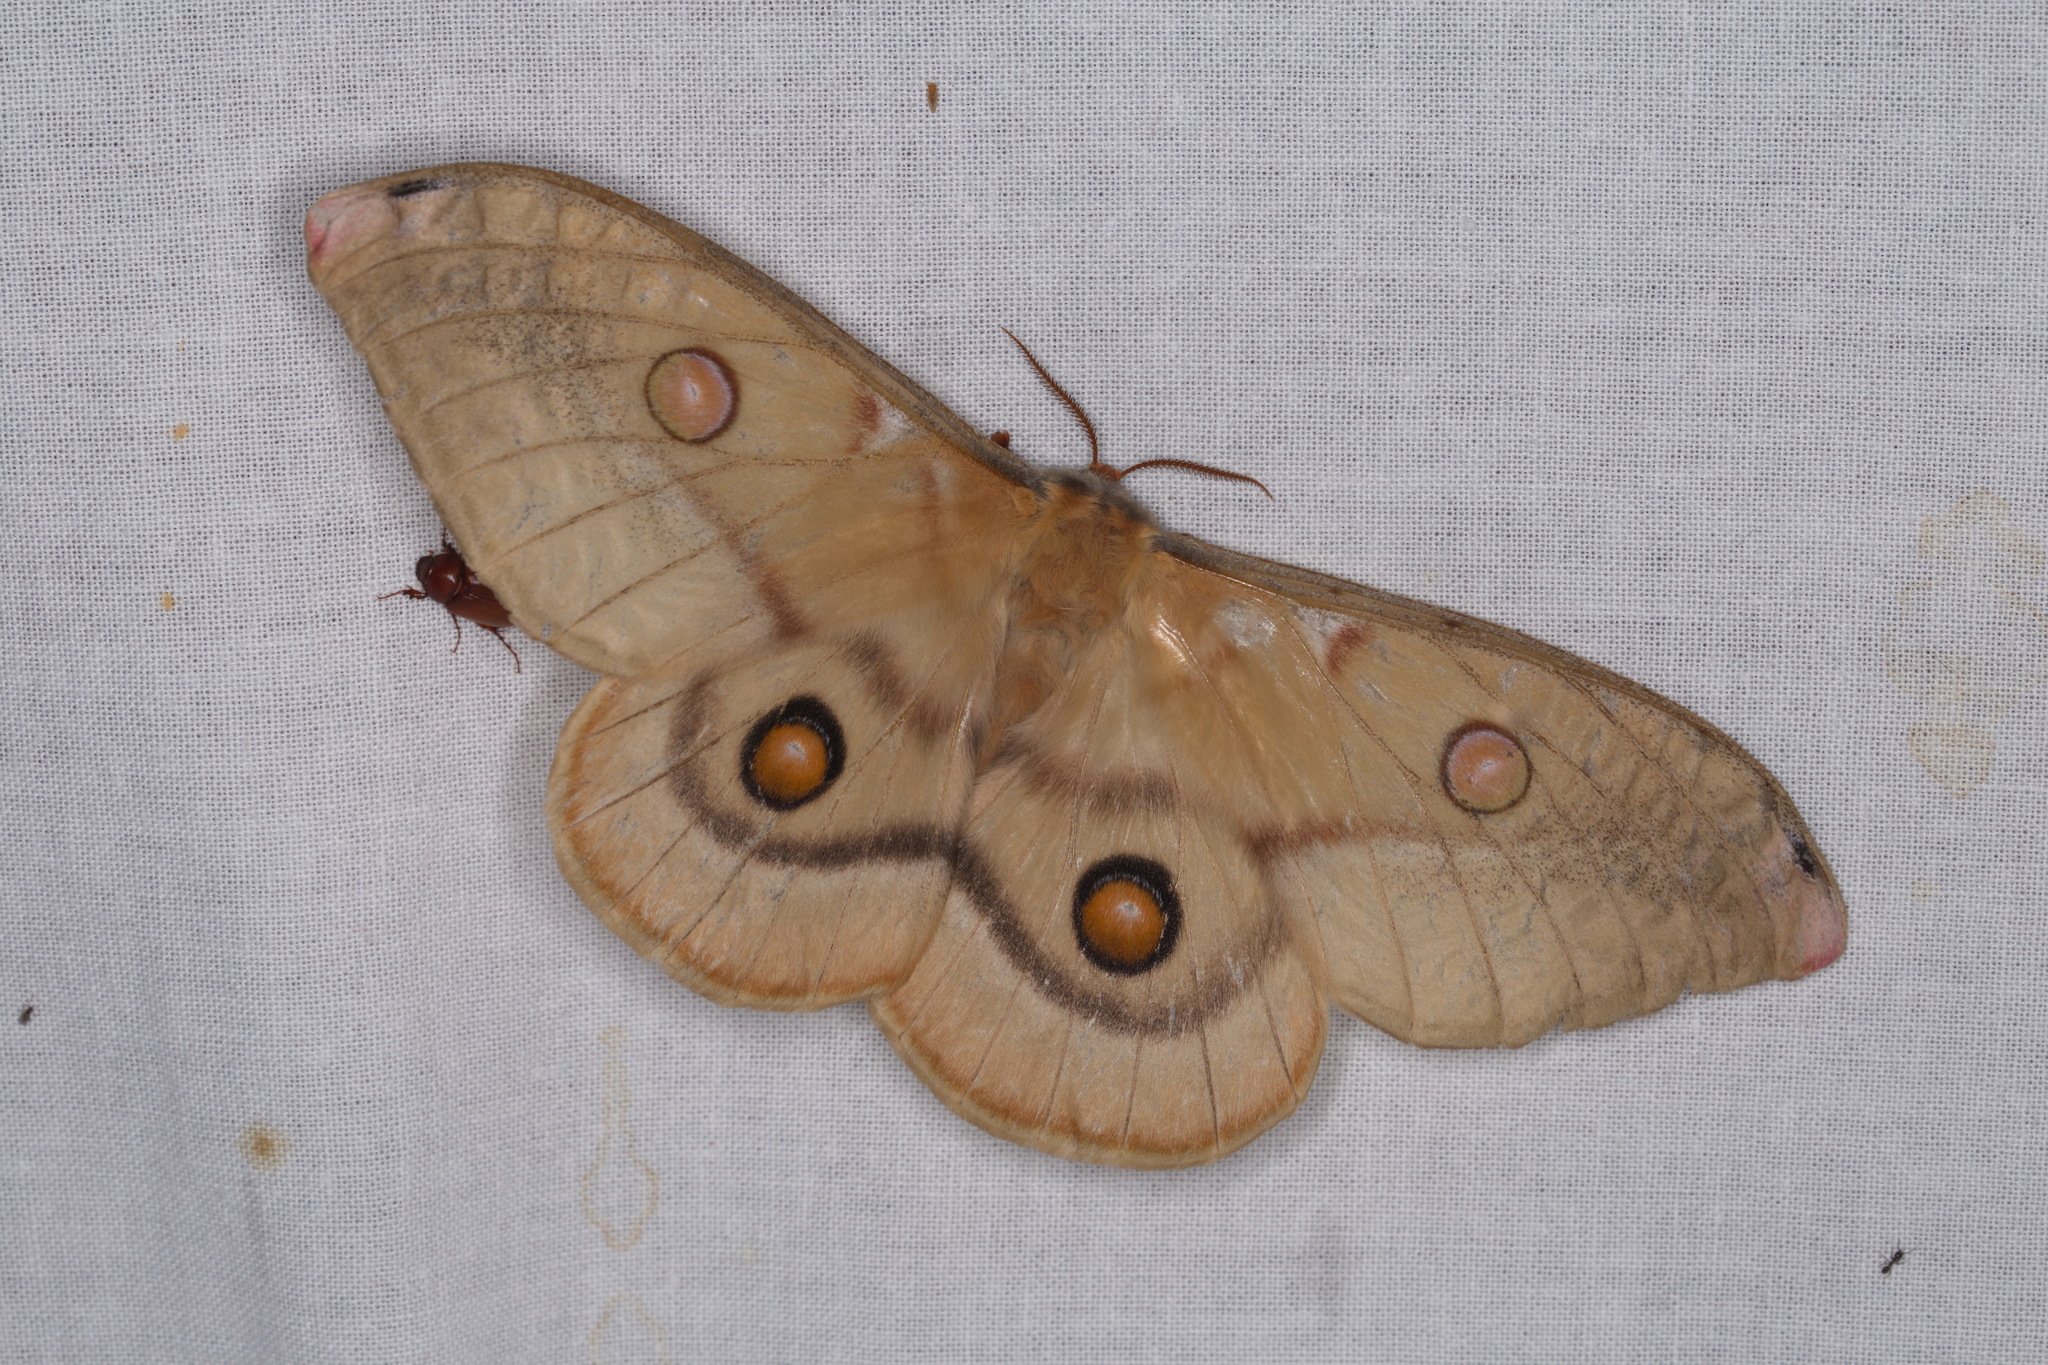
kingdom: Animalia
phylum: Arthropoda
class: Insecta
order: Lepidoptera
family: Saturniidae
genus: Opodiphthera
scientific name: Opodiphthera
